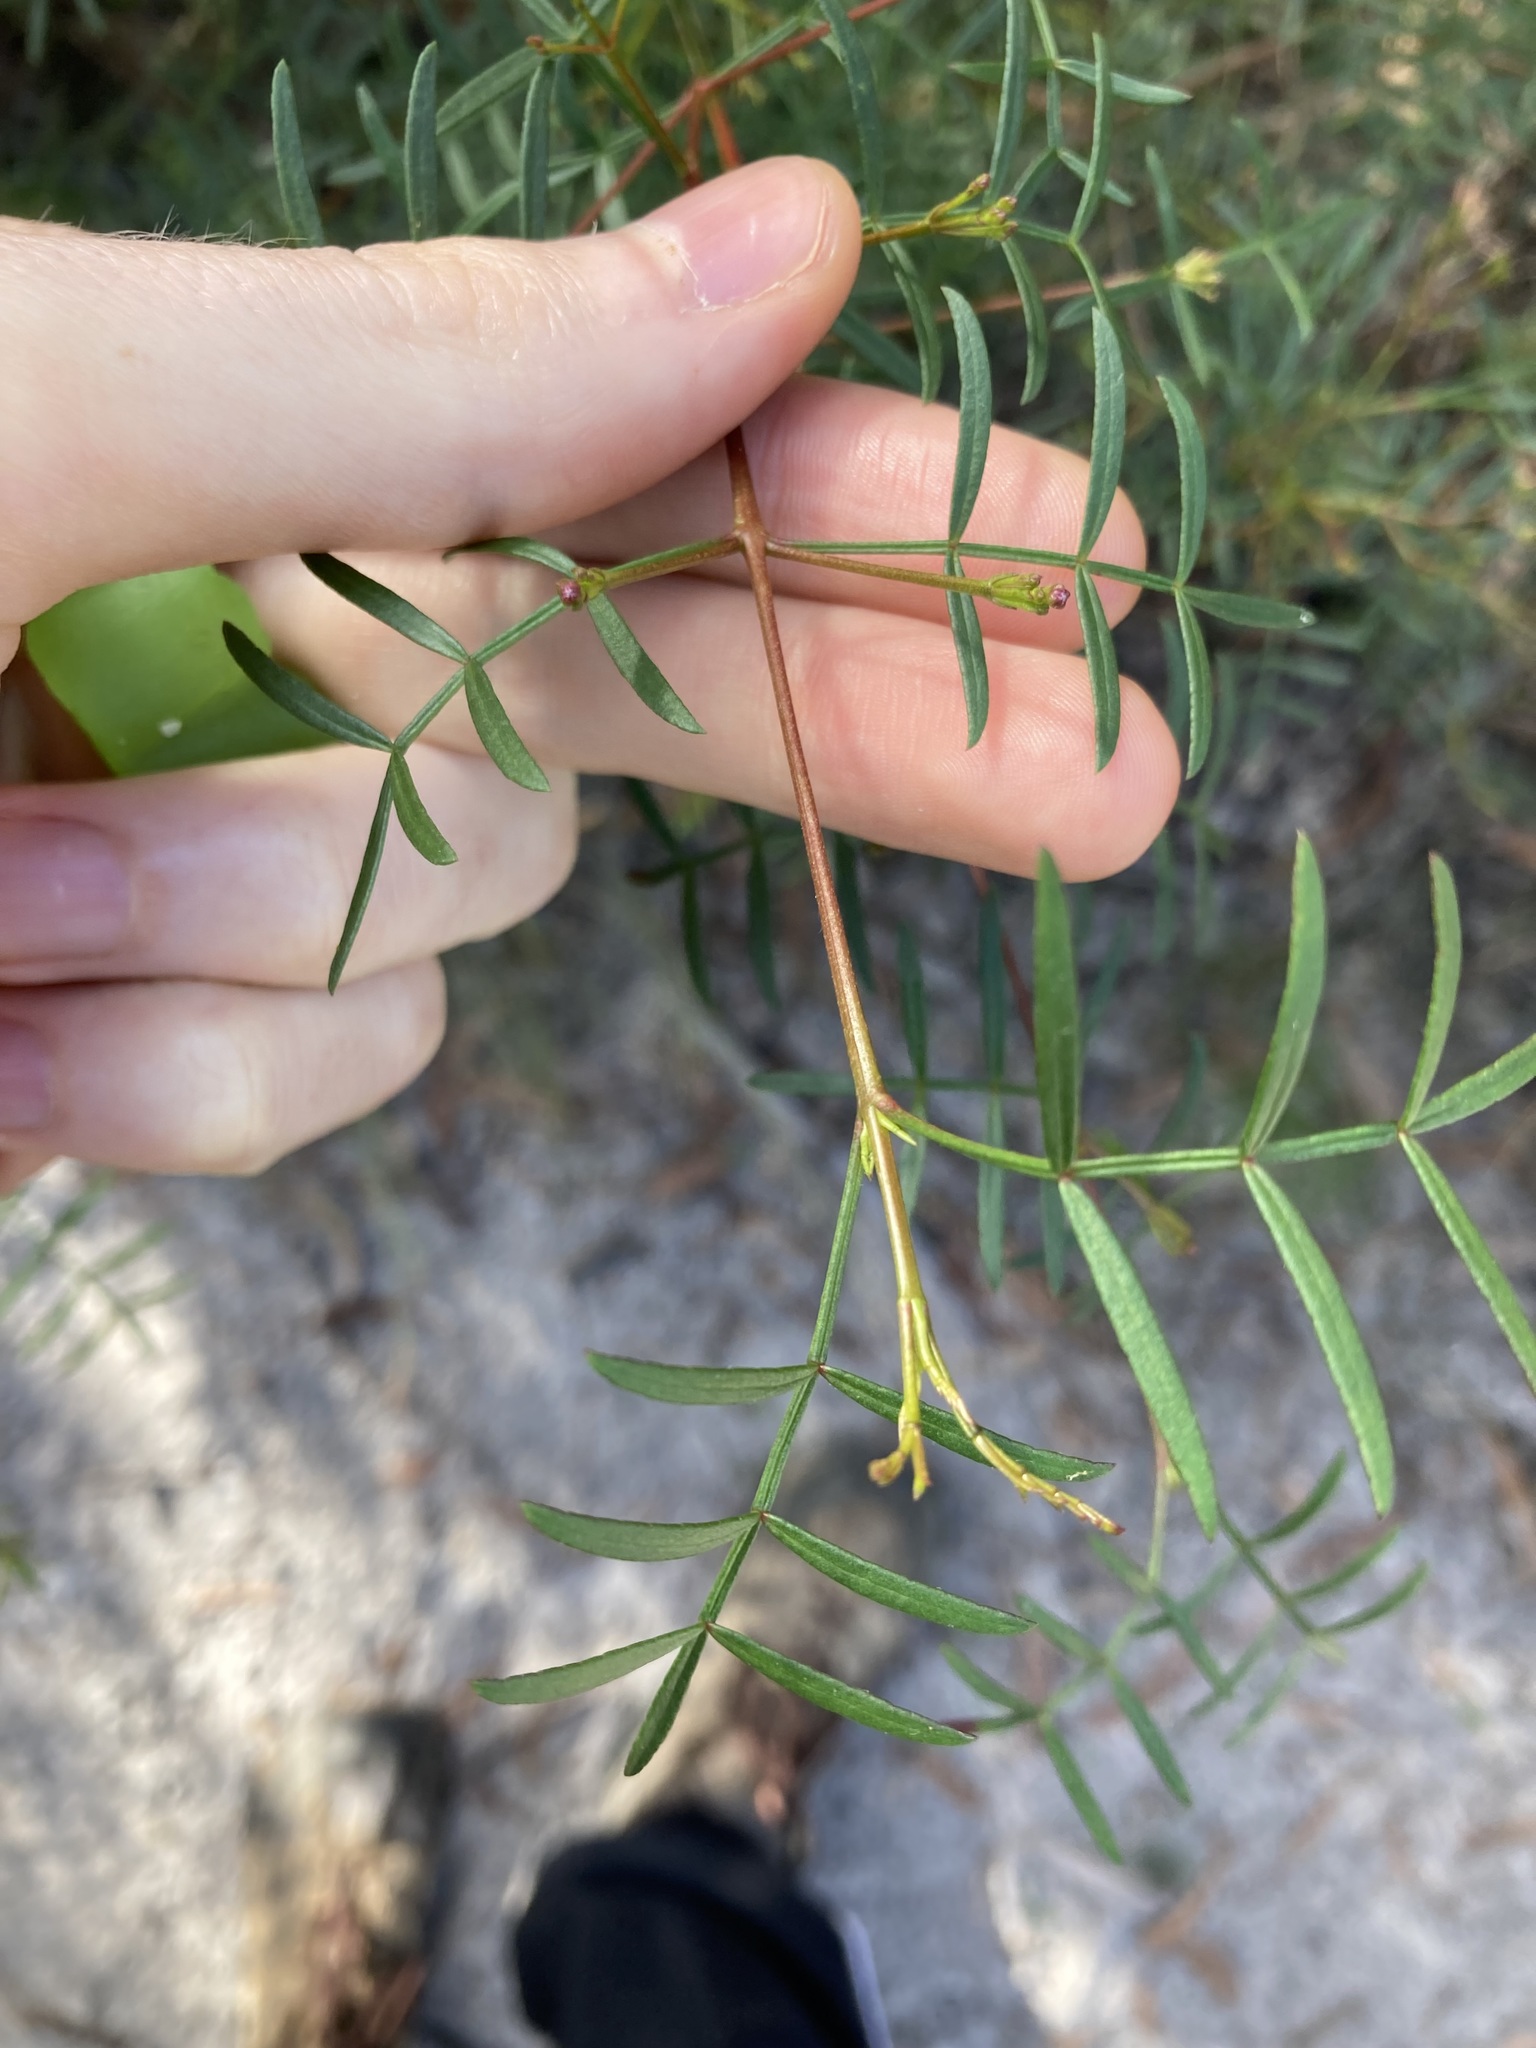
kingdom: Plantae
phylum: Tracheophyta
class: Magnoliopsida
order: Sapindales
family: Rutaceae
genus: Boronia
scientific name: Boronia pinnata
